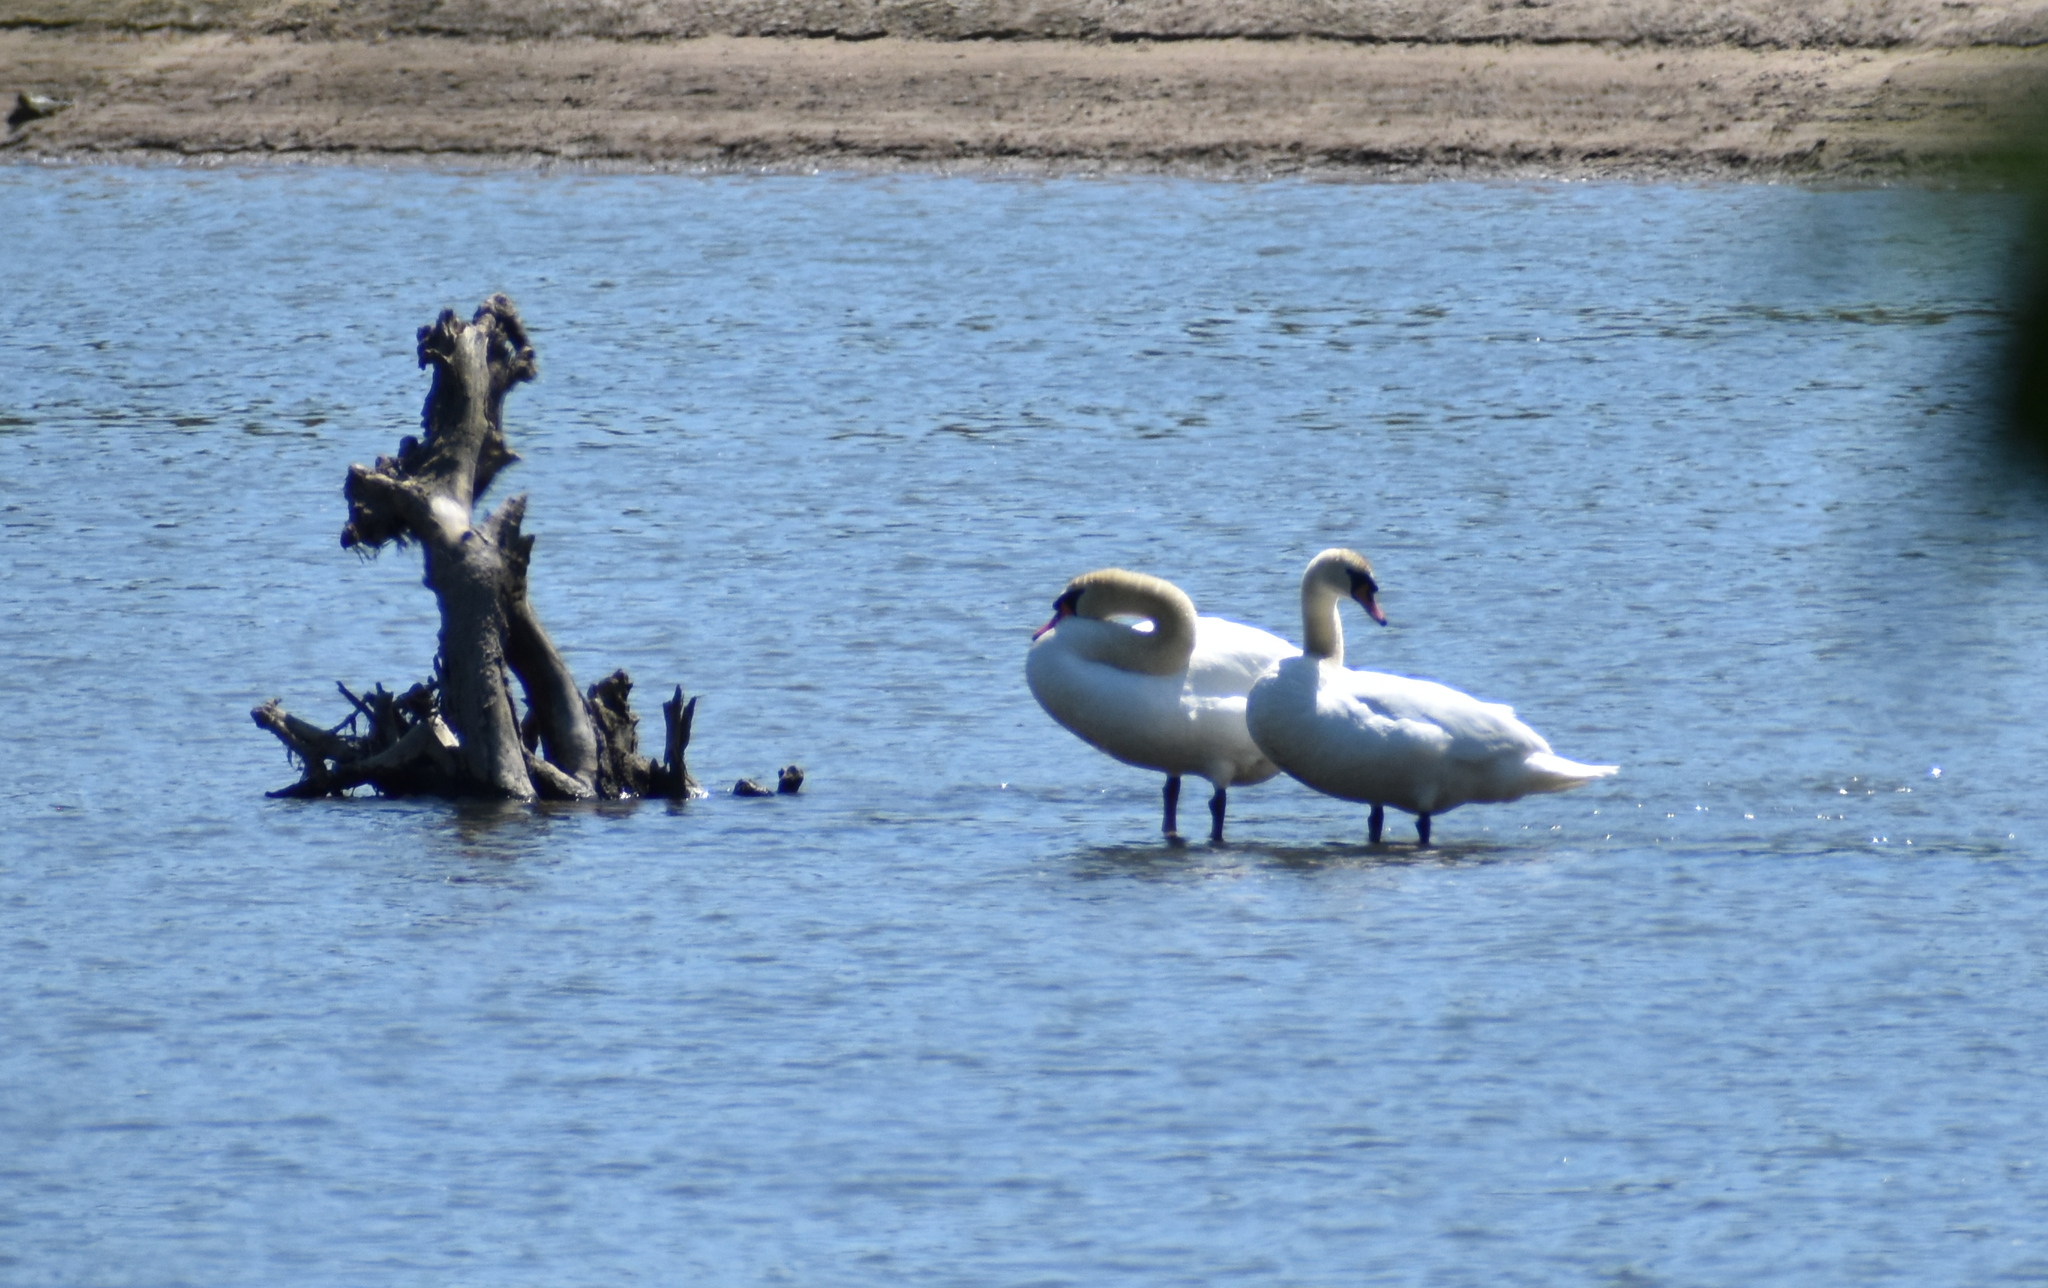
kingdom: Animalia
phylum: Chordata
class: Aves
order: Anseriformes
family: Anatidae
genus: Cygnus
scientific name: Cygnus olor
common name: Mute swan
